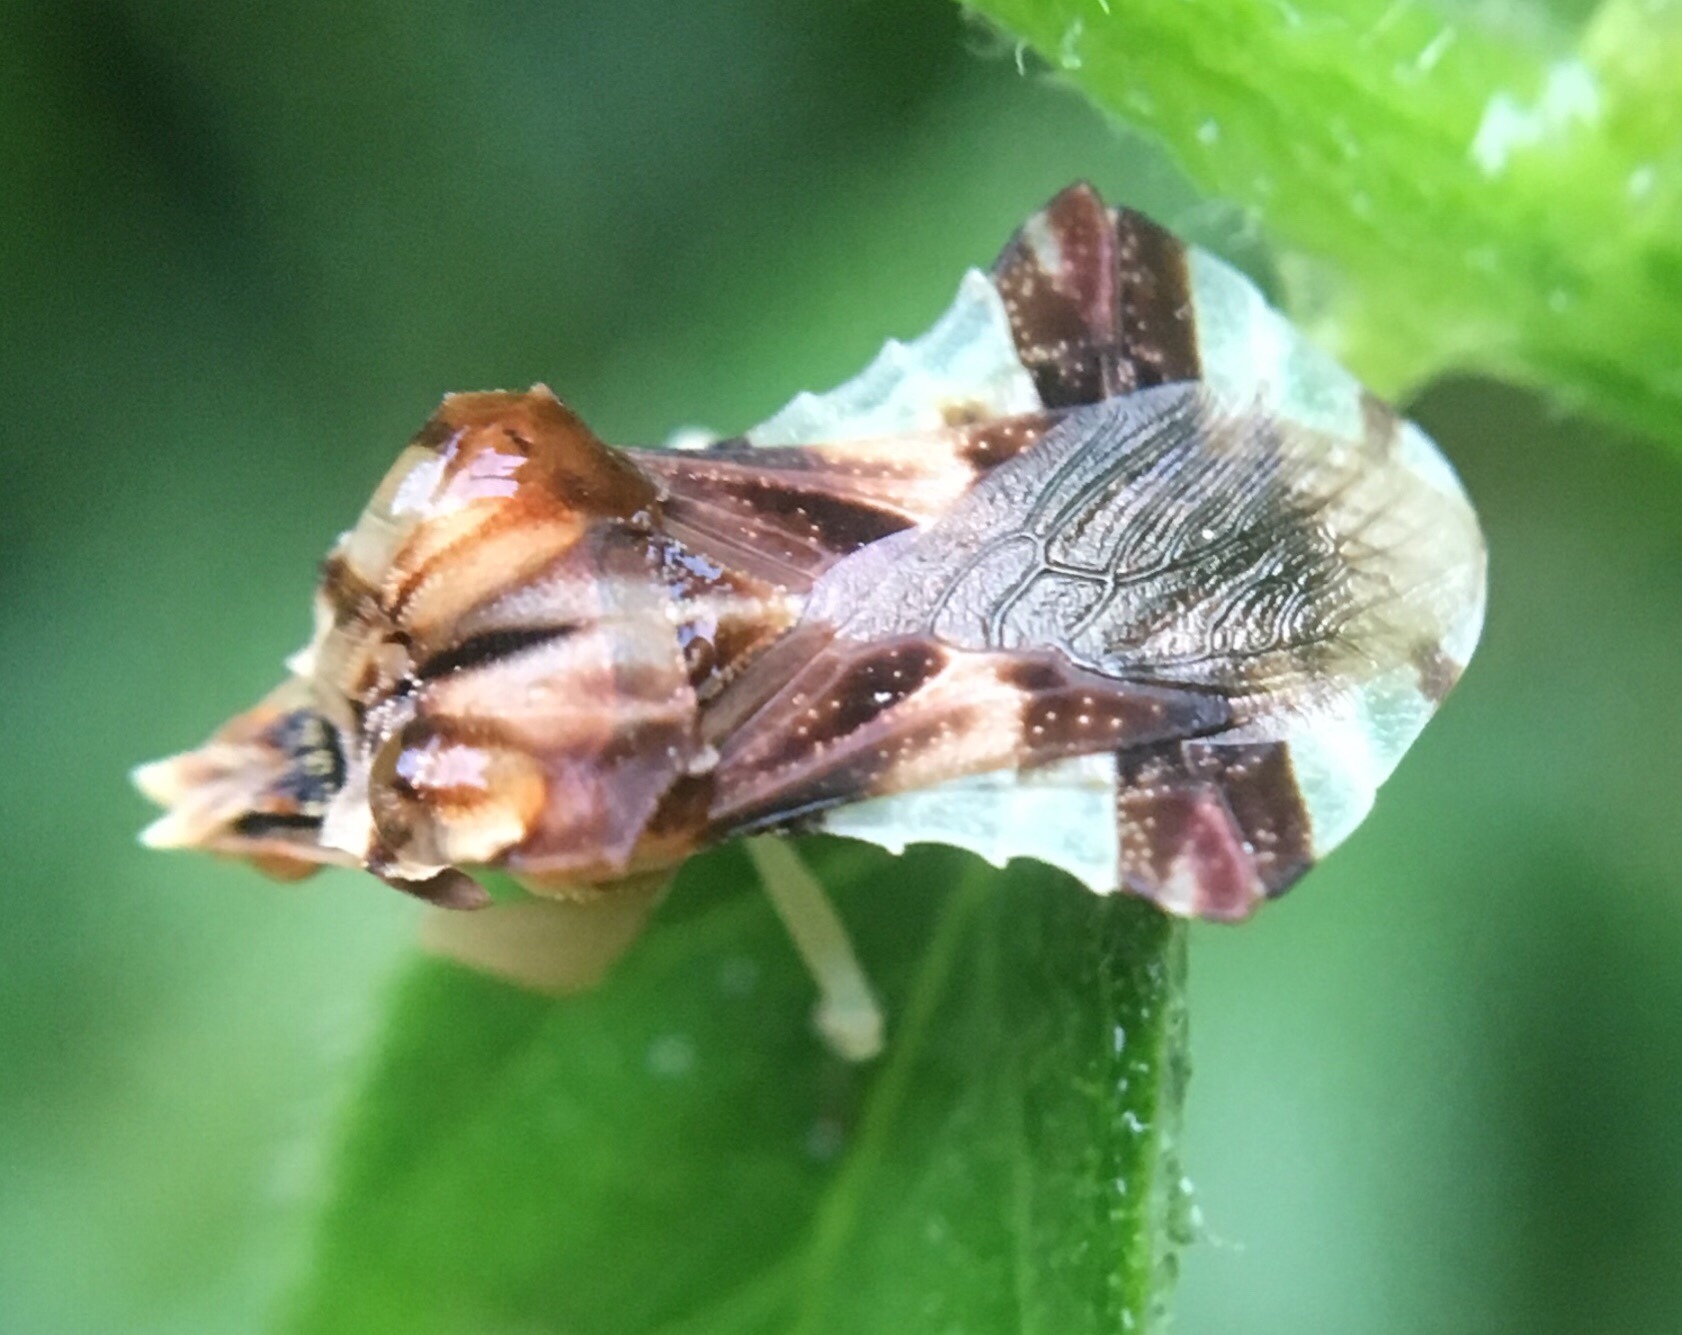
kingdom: Animalia
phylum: Arthropoda
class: Insecta
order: Hemiptera
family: Reduviidae
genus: Phymata
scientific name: Phymata fasciata
